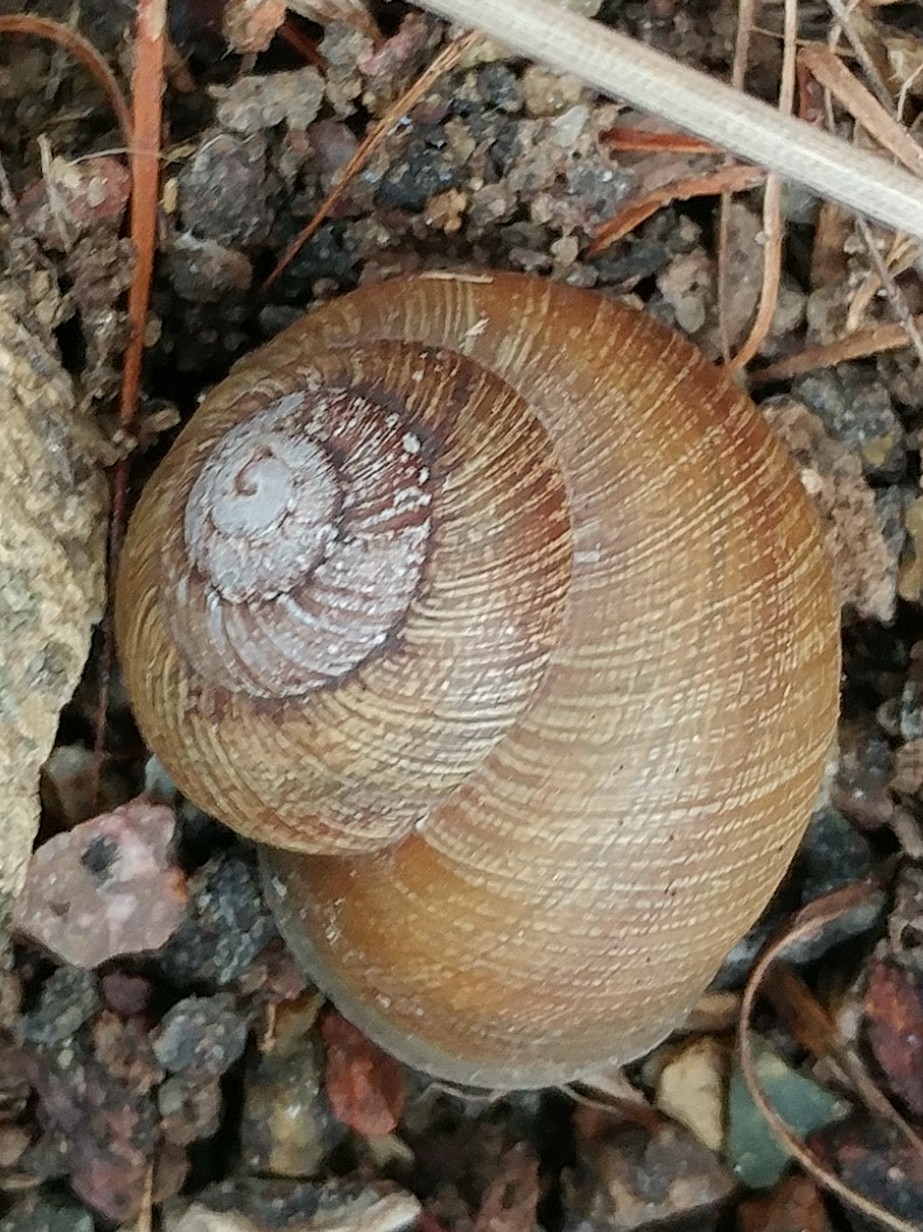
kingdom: Animalia
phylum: Mollusca
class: Gastropoda
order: Stylommatophora
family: Xanthonychidae
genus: Xerarionta
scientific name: Xerarionta intercisa
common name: Plain cactus snail
